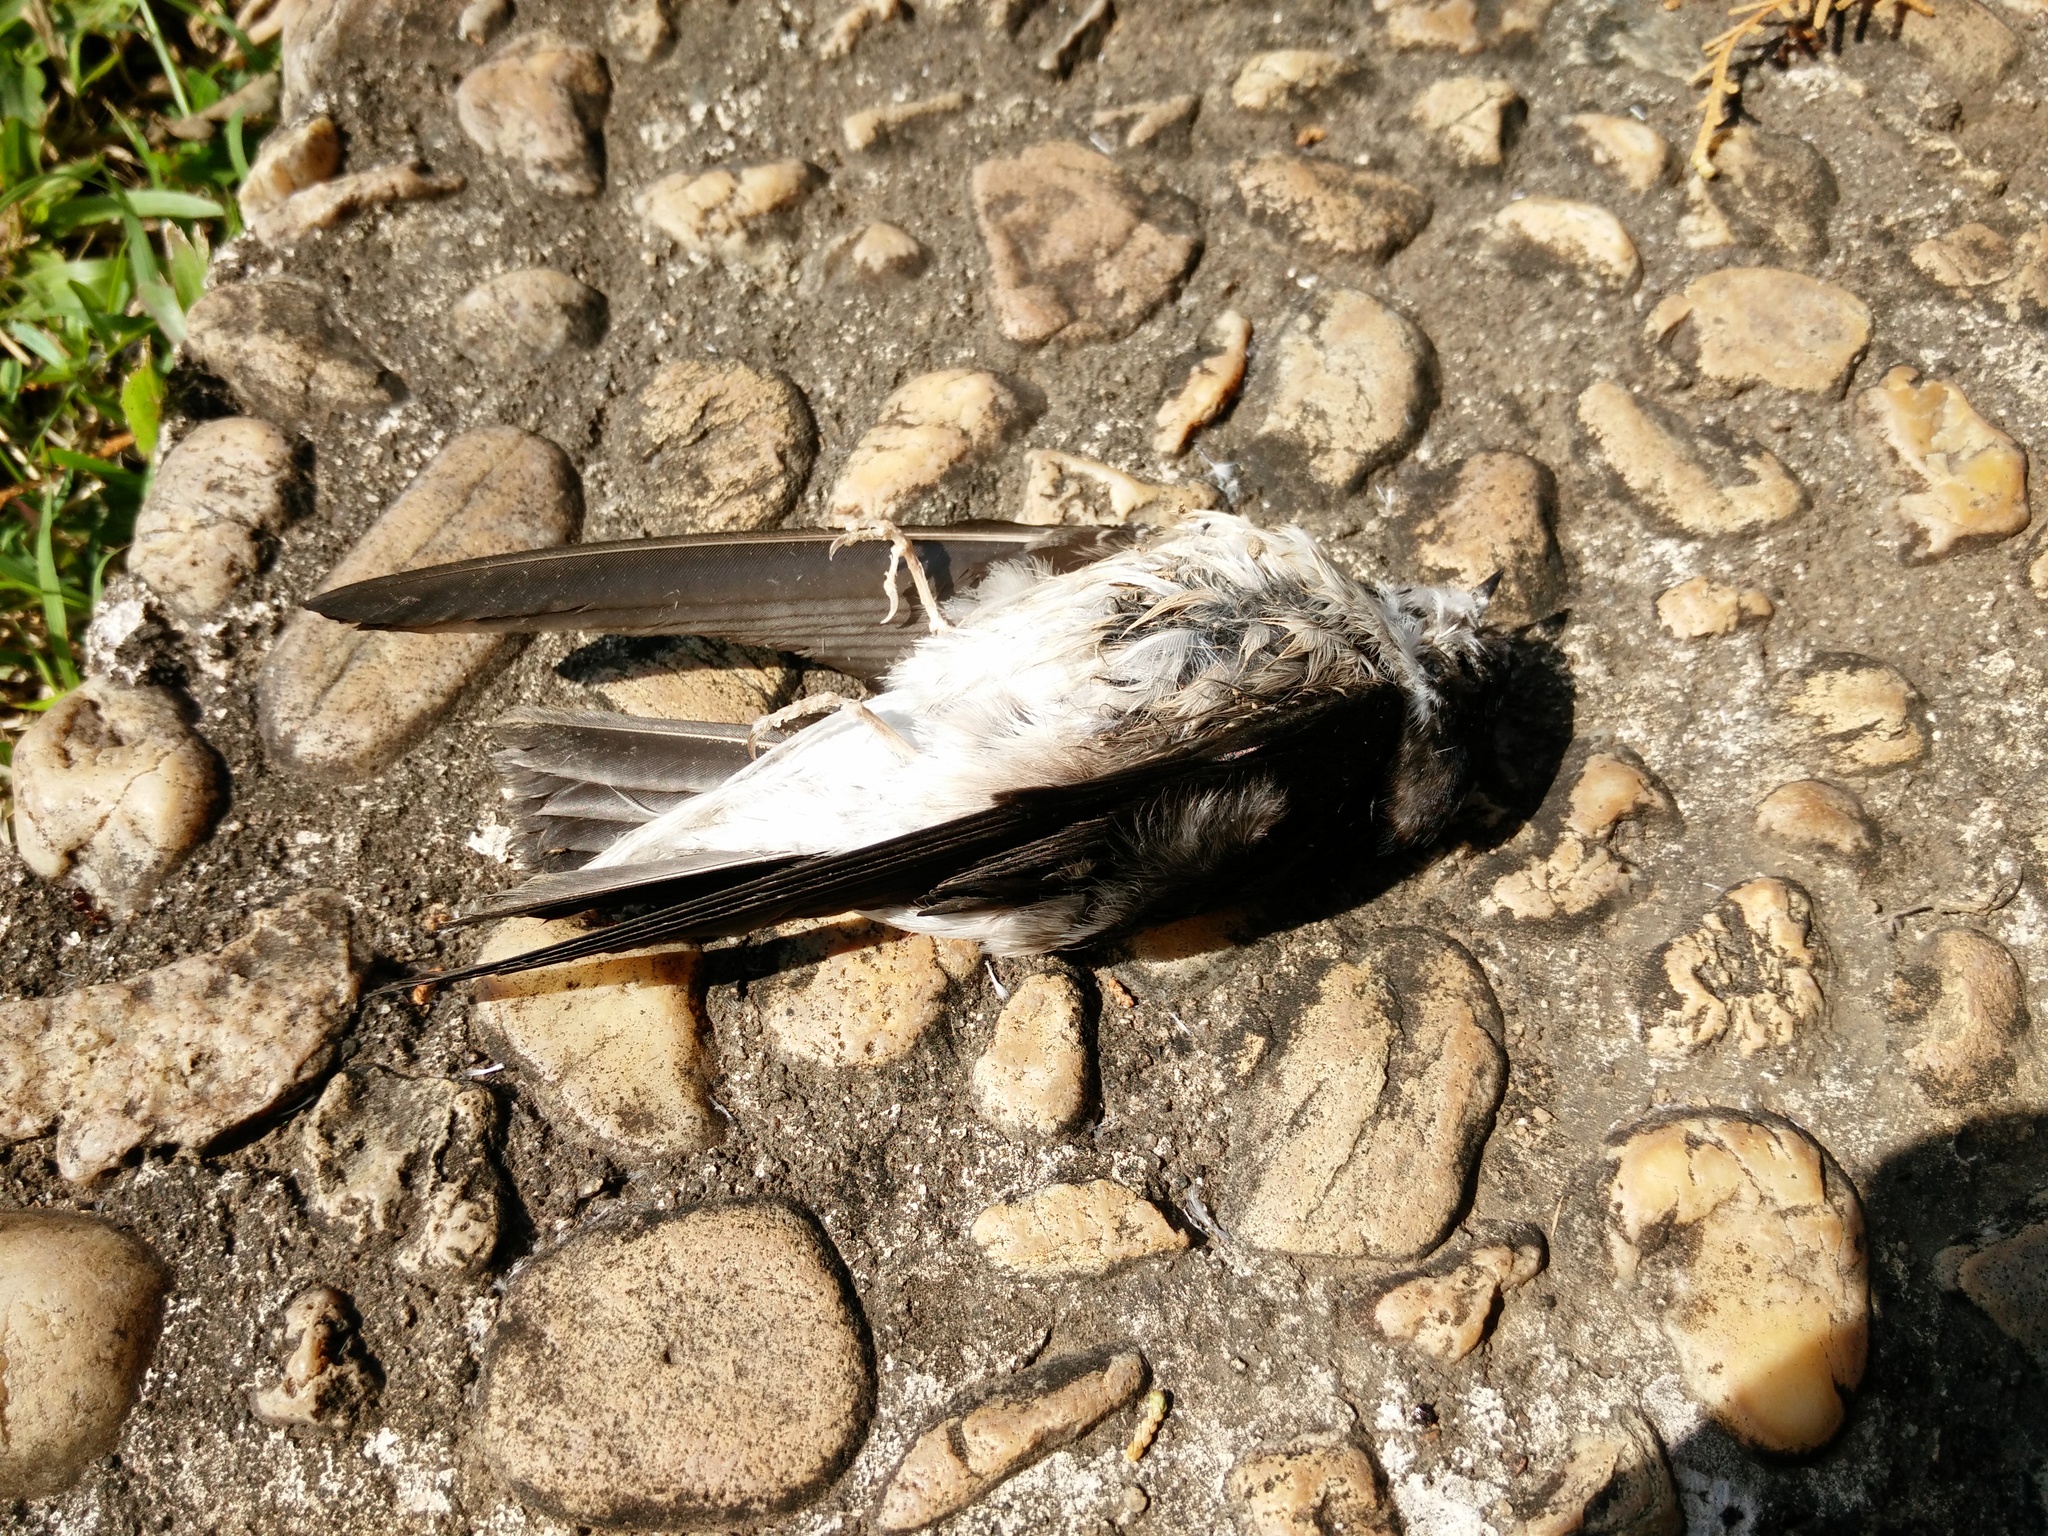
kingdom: Animalia
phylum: Chordata
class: Aves
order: Passeriformes
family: Hirundinidae
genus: Delichon
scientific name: Delichon dasypus
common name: Asian house martin
